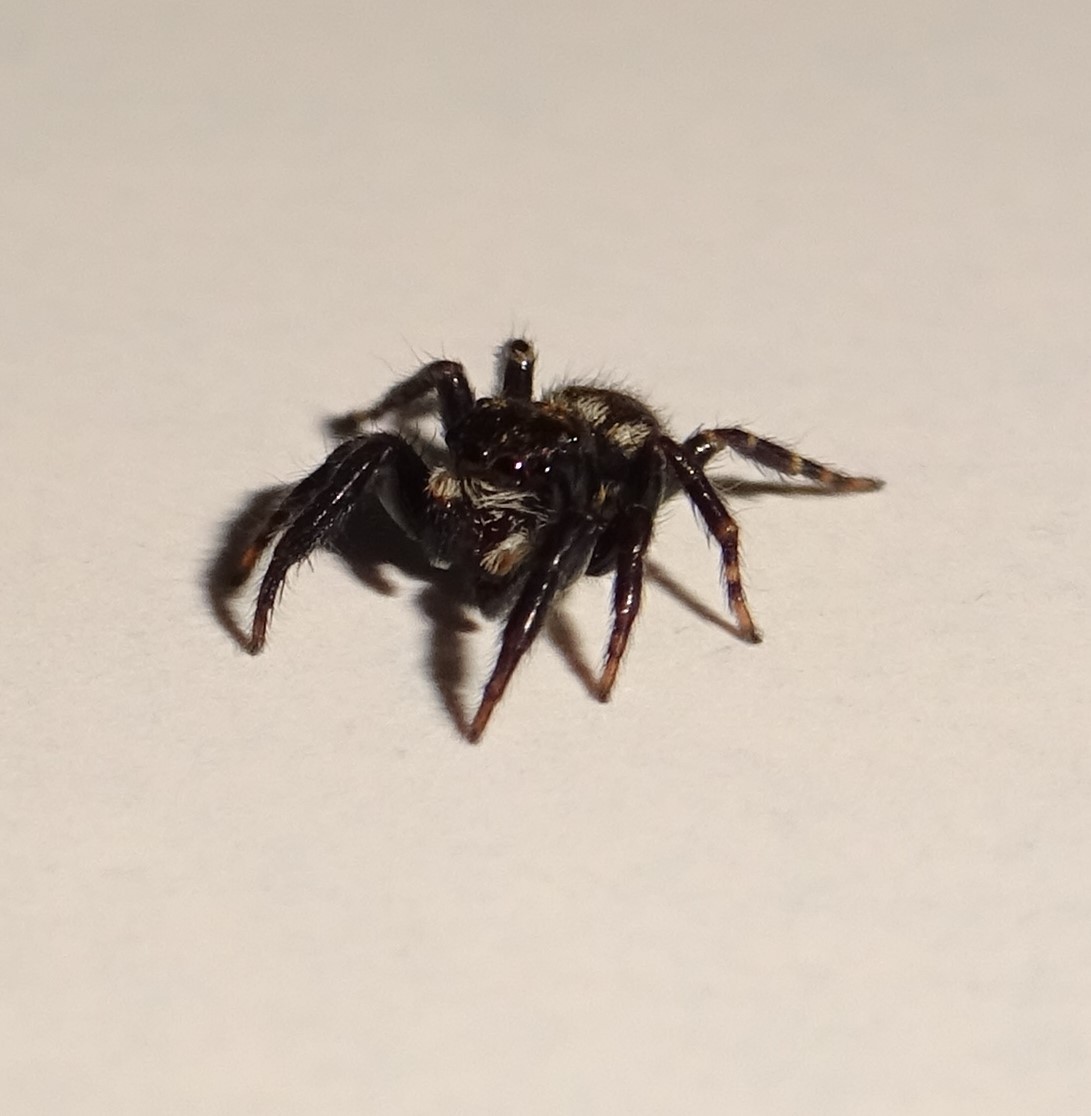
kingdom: Animalia
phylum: Arthropoda
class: Arachnida
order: Araneae
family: Salticidae
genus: Pseudeuophrys
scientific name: Pseudeuophrys erratica
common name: Jumping spider
